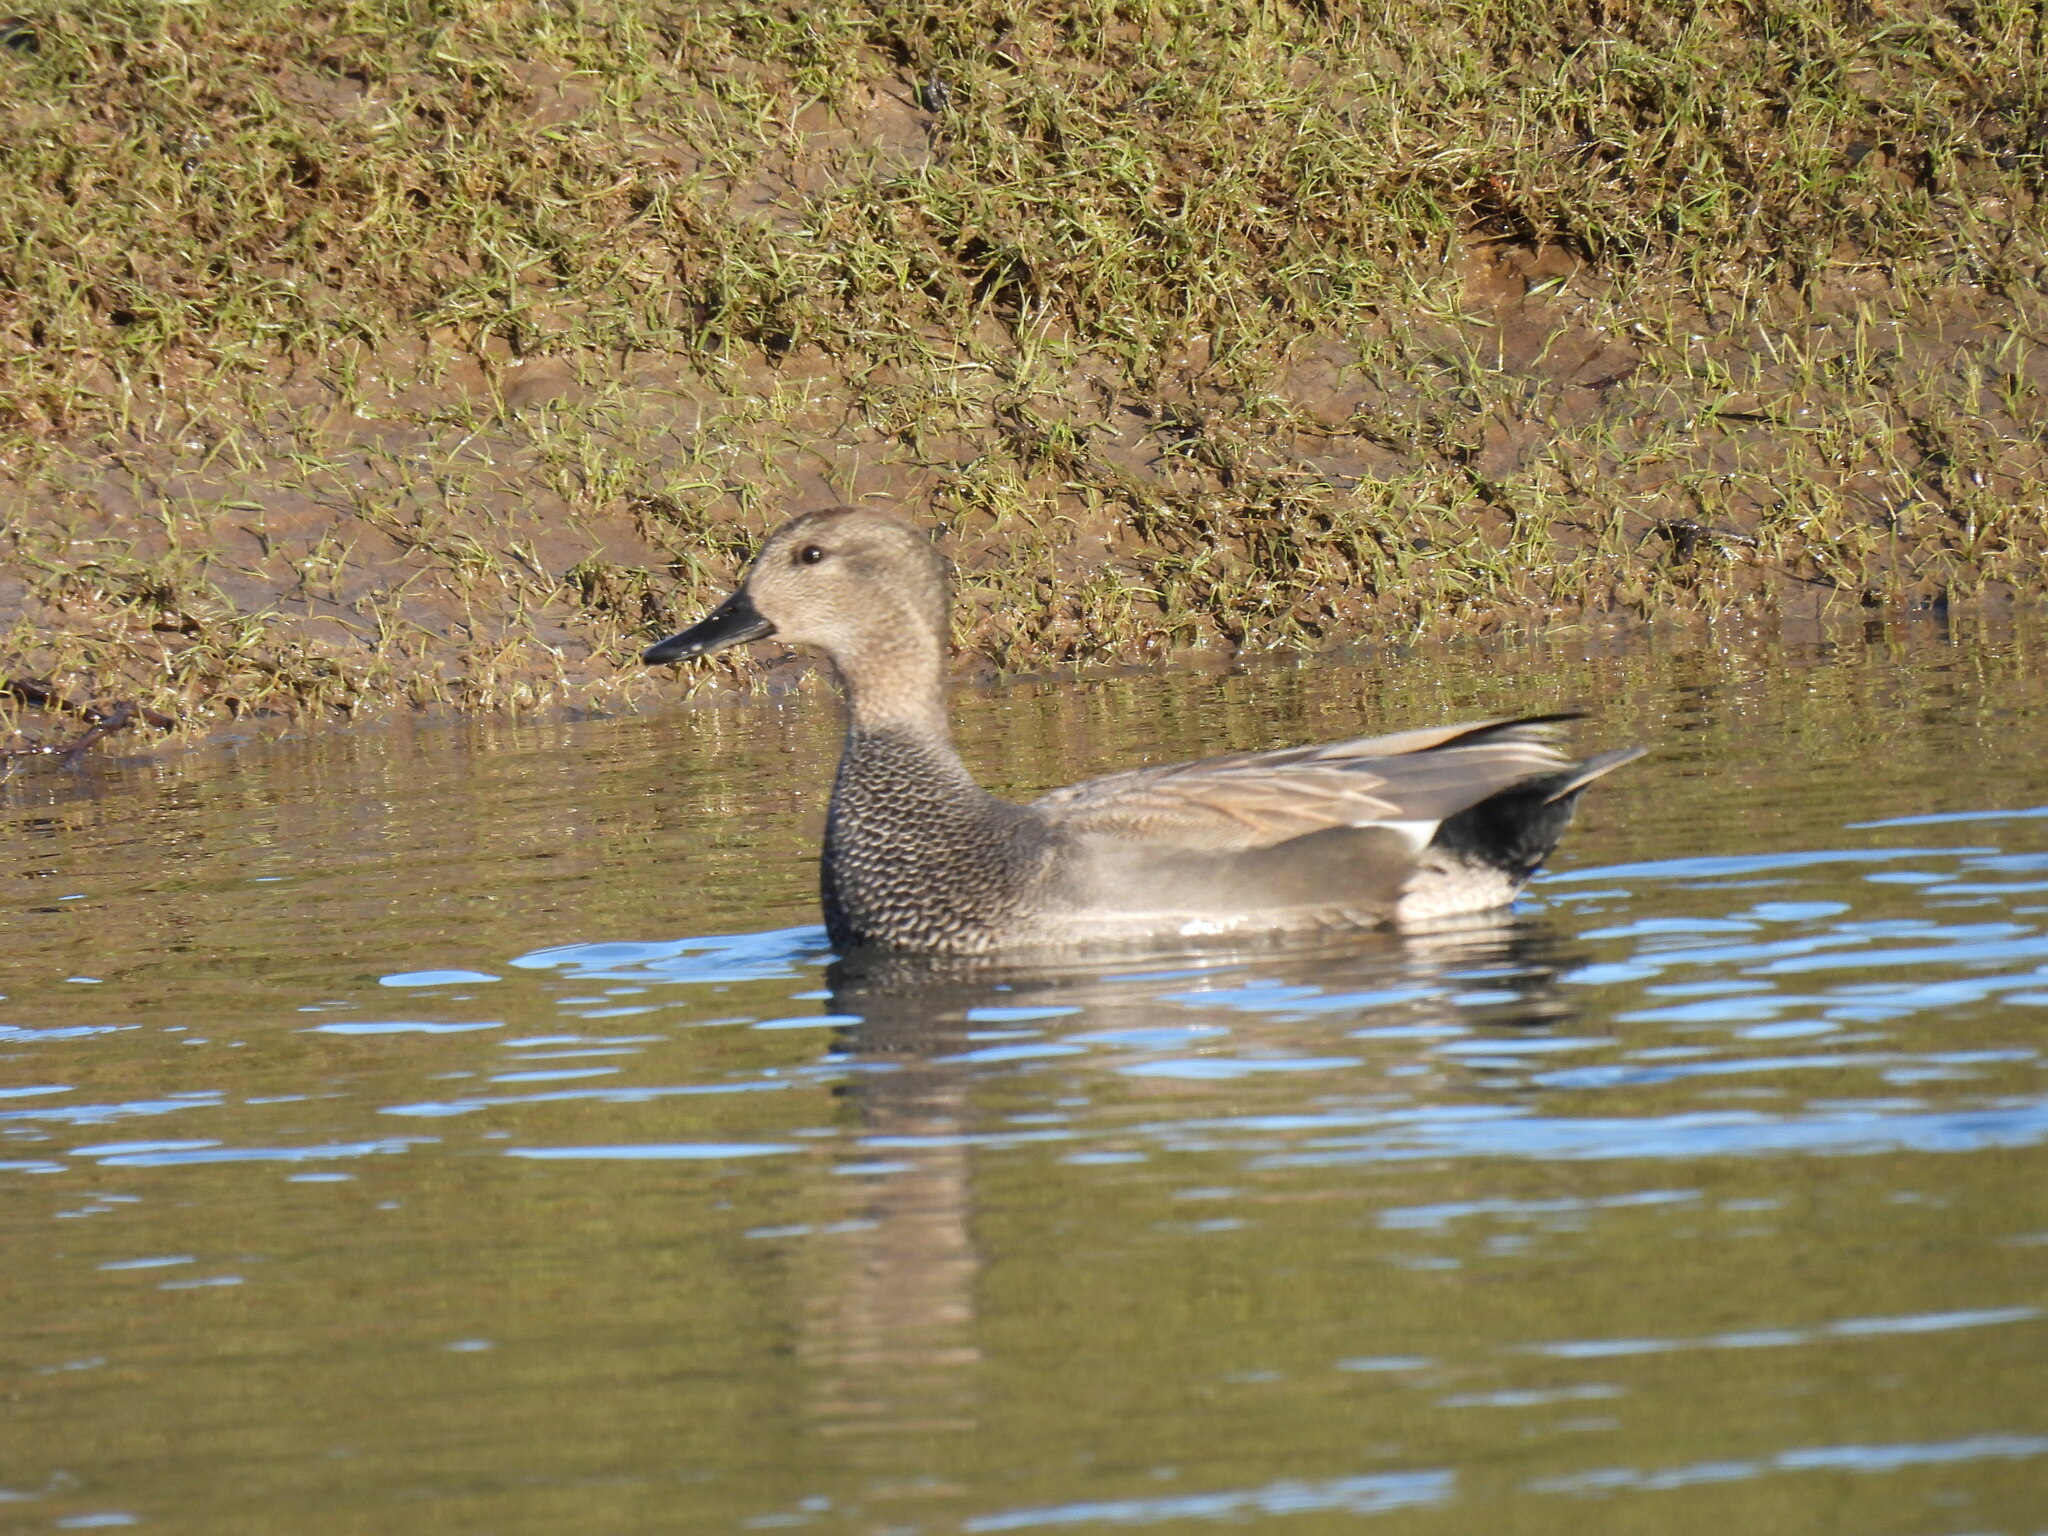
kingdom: Animalia
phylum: Chordata
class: Aves
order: Anseriformes
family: Anatidae
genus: Mareca
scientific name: Mareca strepera
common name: Gadwall
